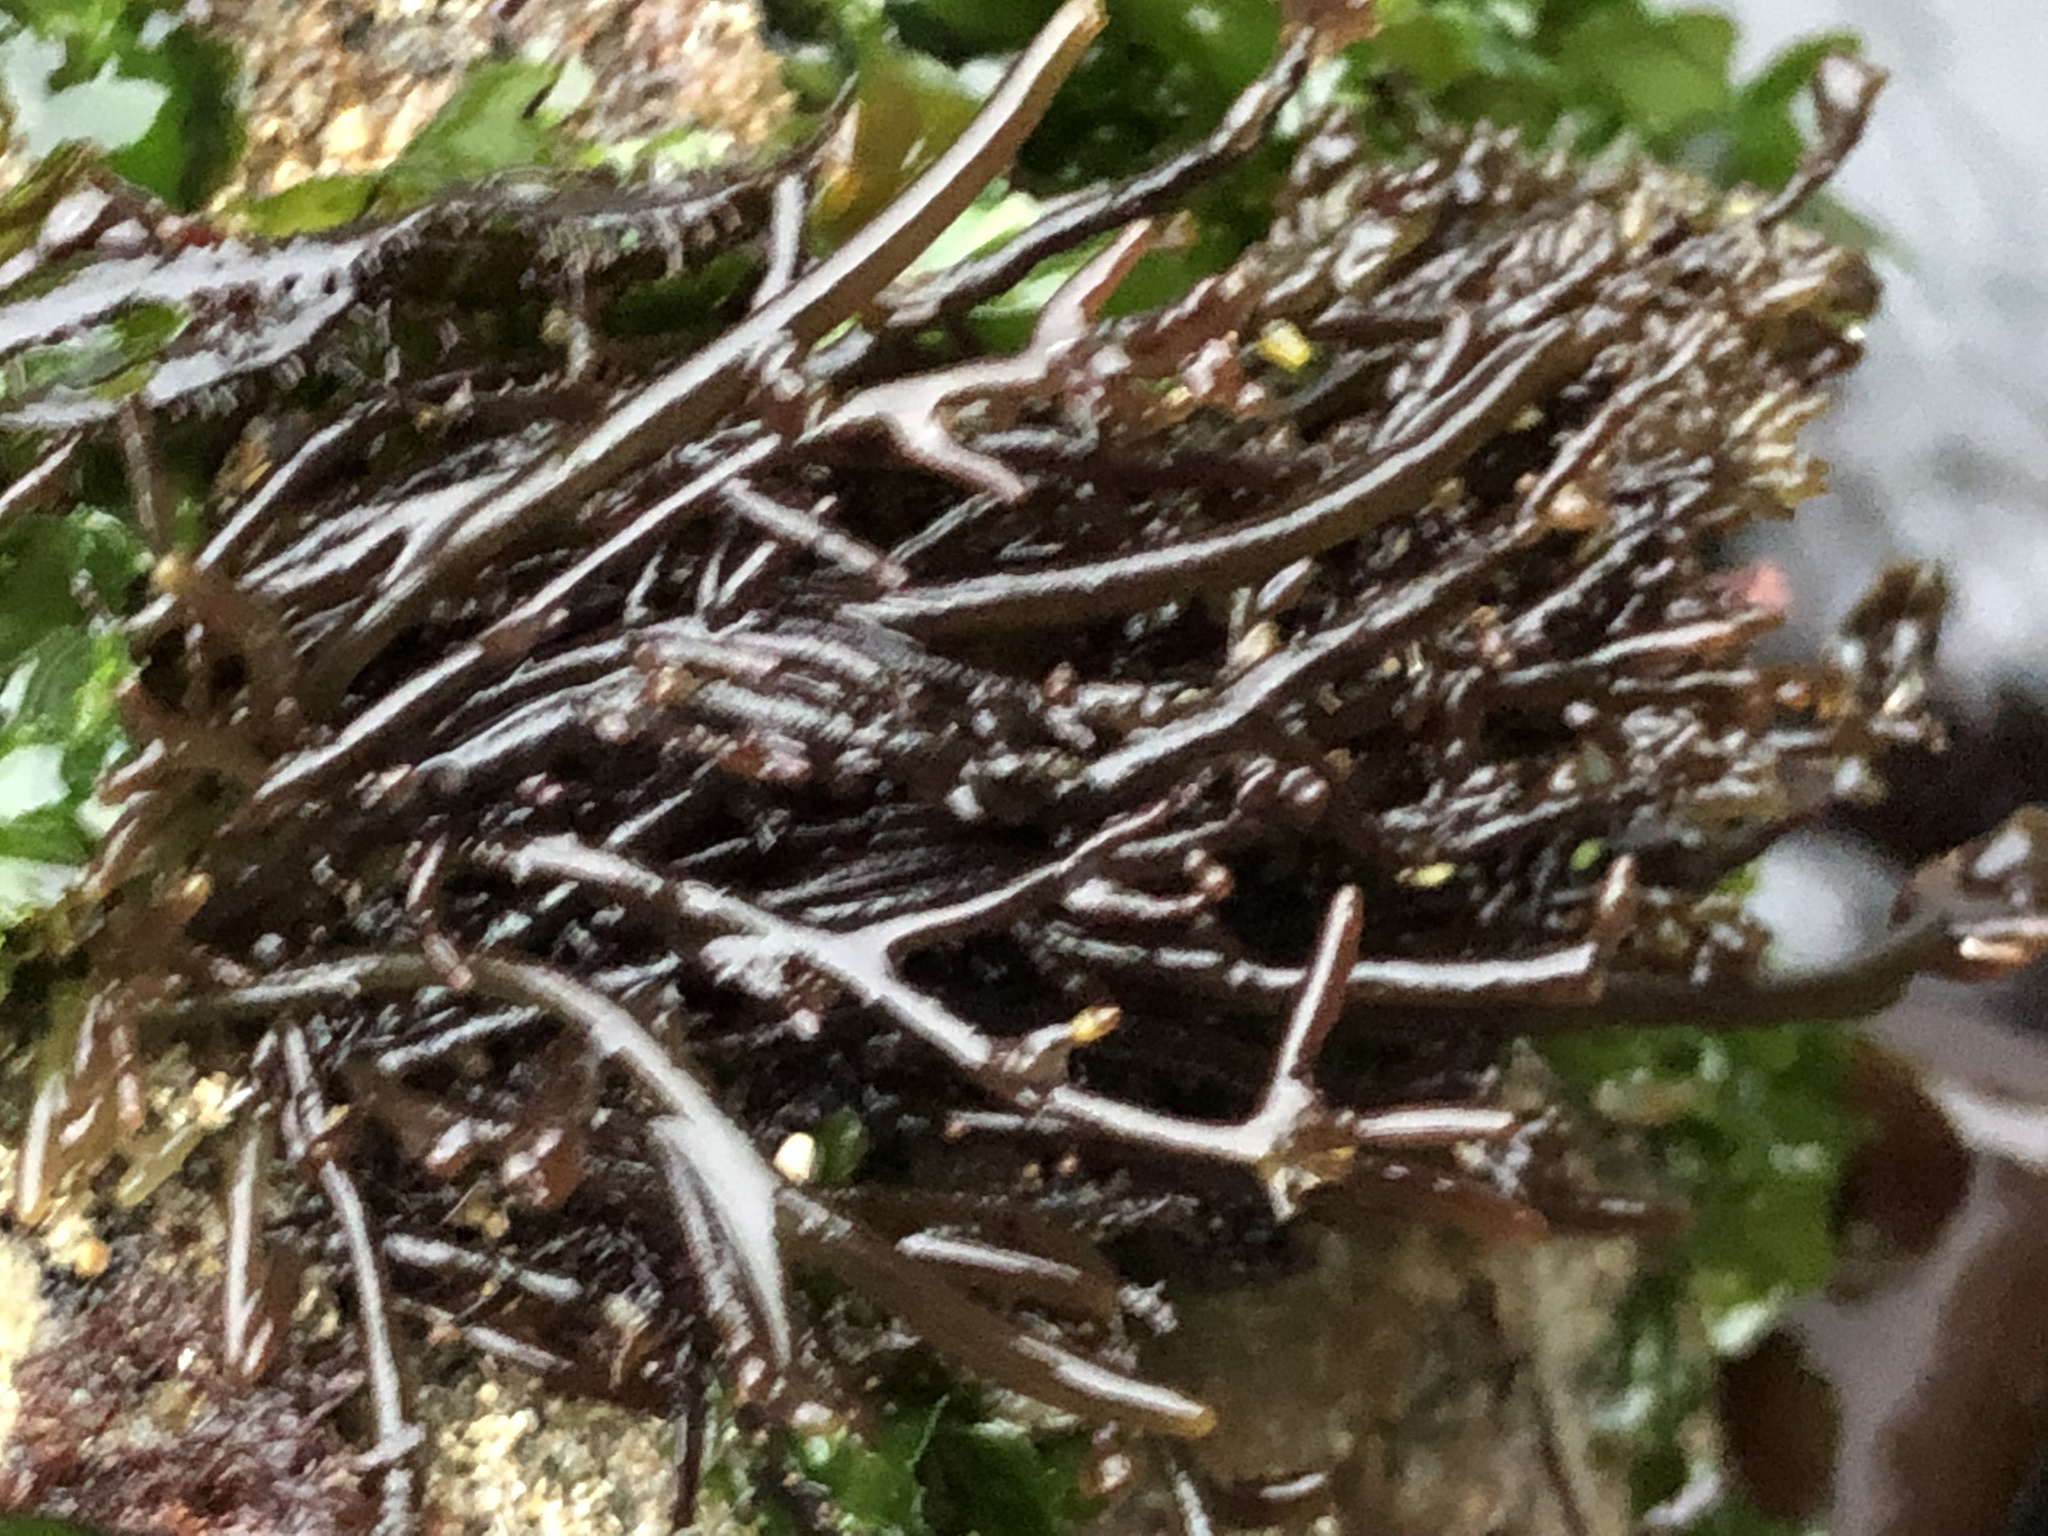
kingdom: Plantae
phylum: Rhodophyta
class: Florideophyceae
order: Rhodymeniales
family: Champiaceae
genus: Neogastroclonium
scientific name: Neogastroclonium subarticulatum
